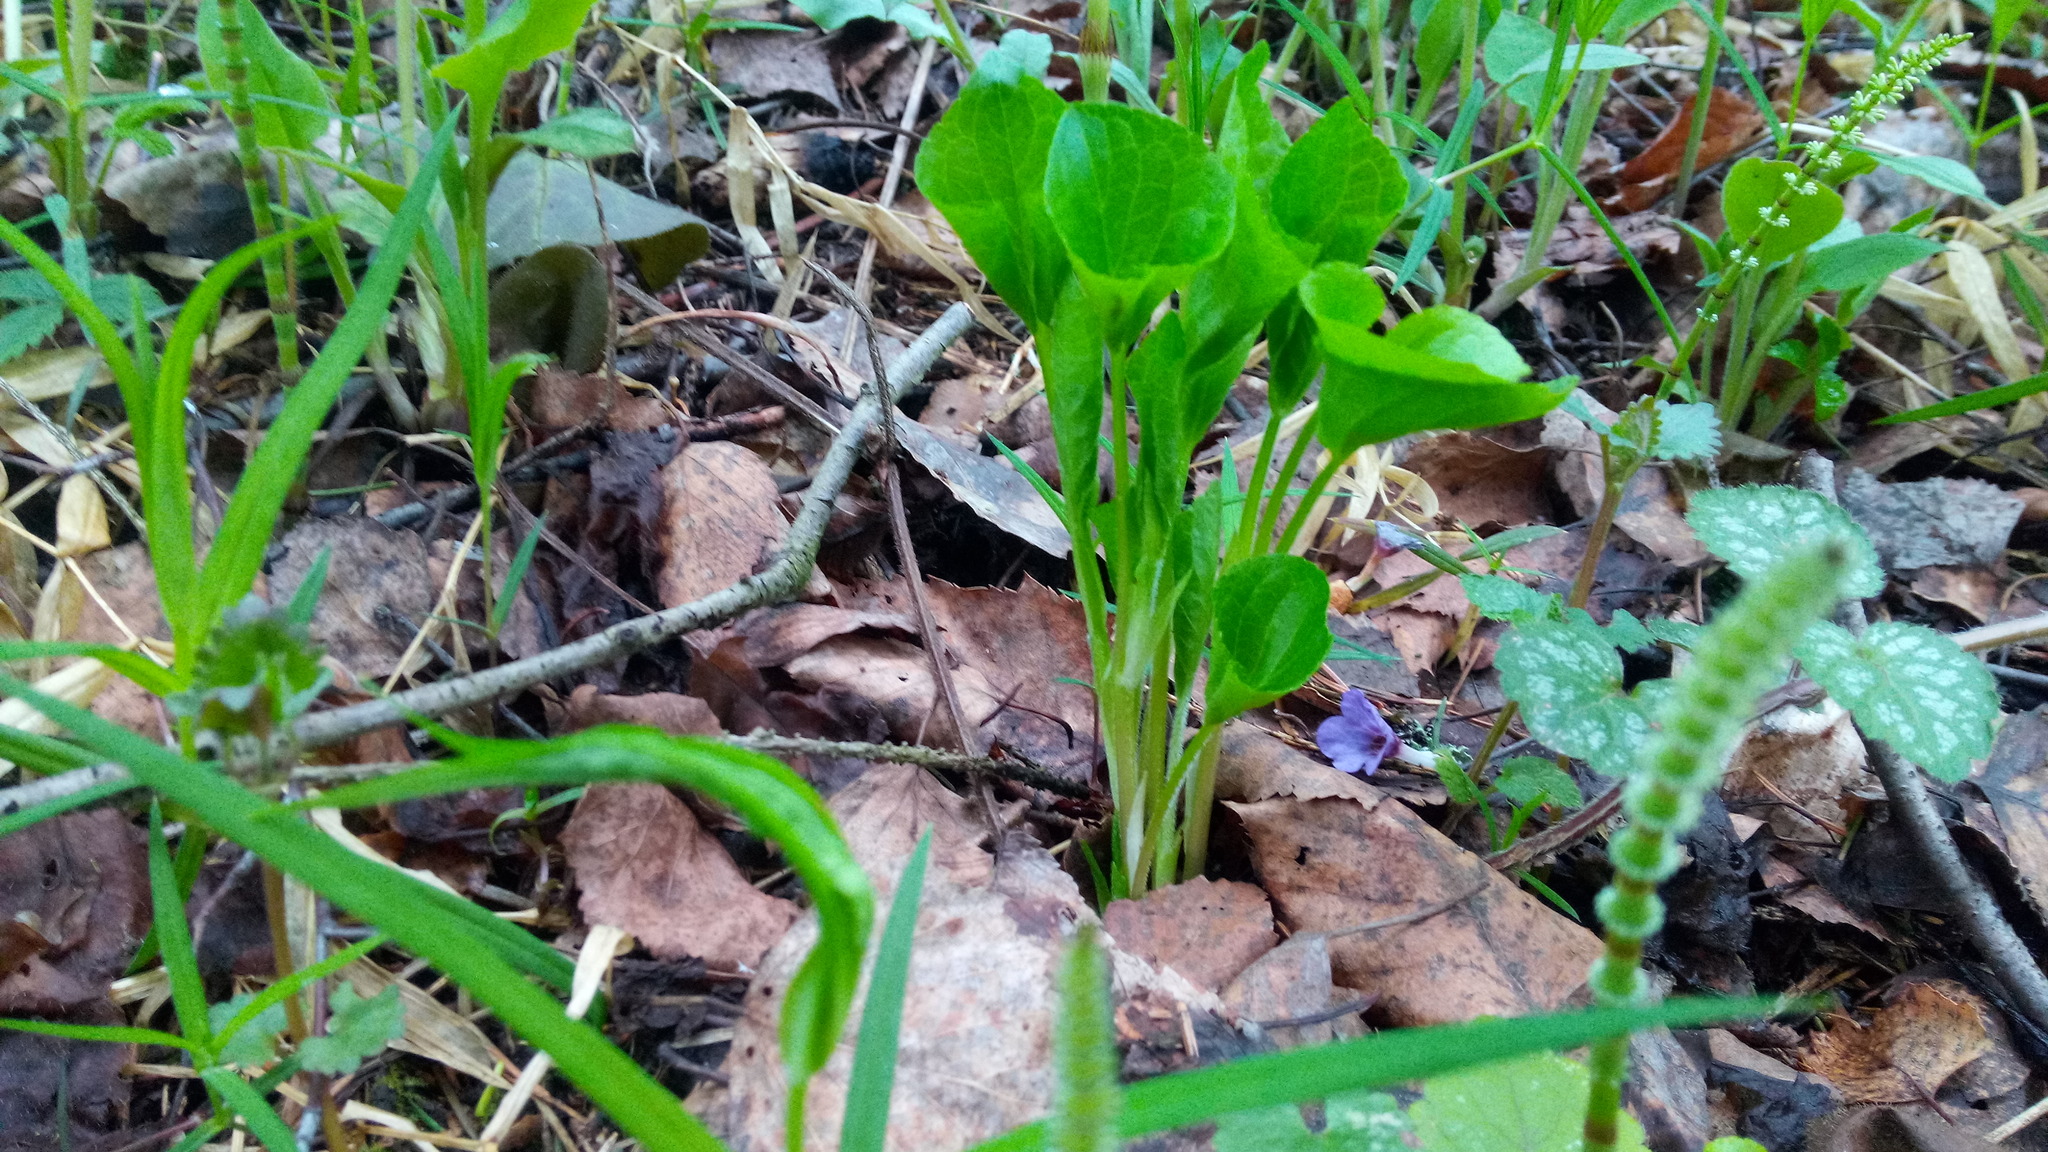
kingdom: Plantae
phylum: Tracheophyta
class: Magnoliopsida
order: Malpighiales
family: Violaceae
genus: Viola
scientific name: Viola mirabilis
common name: Wonder violet
